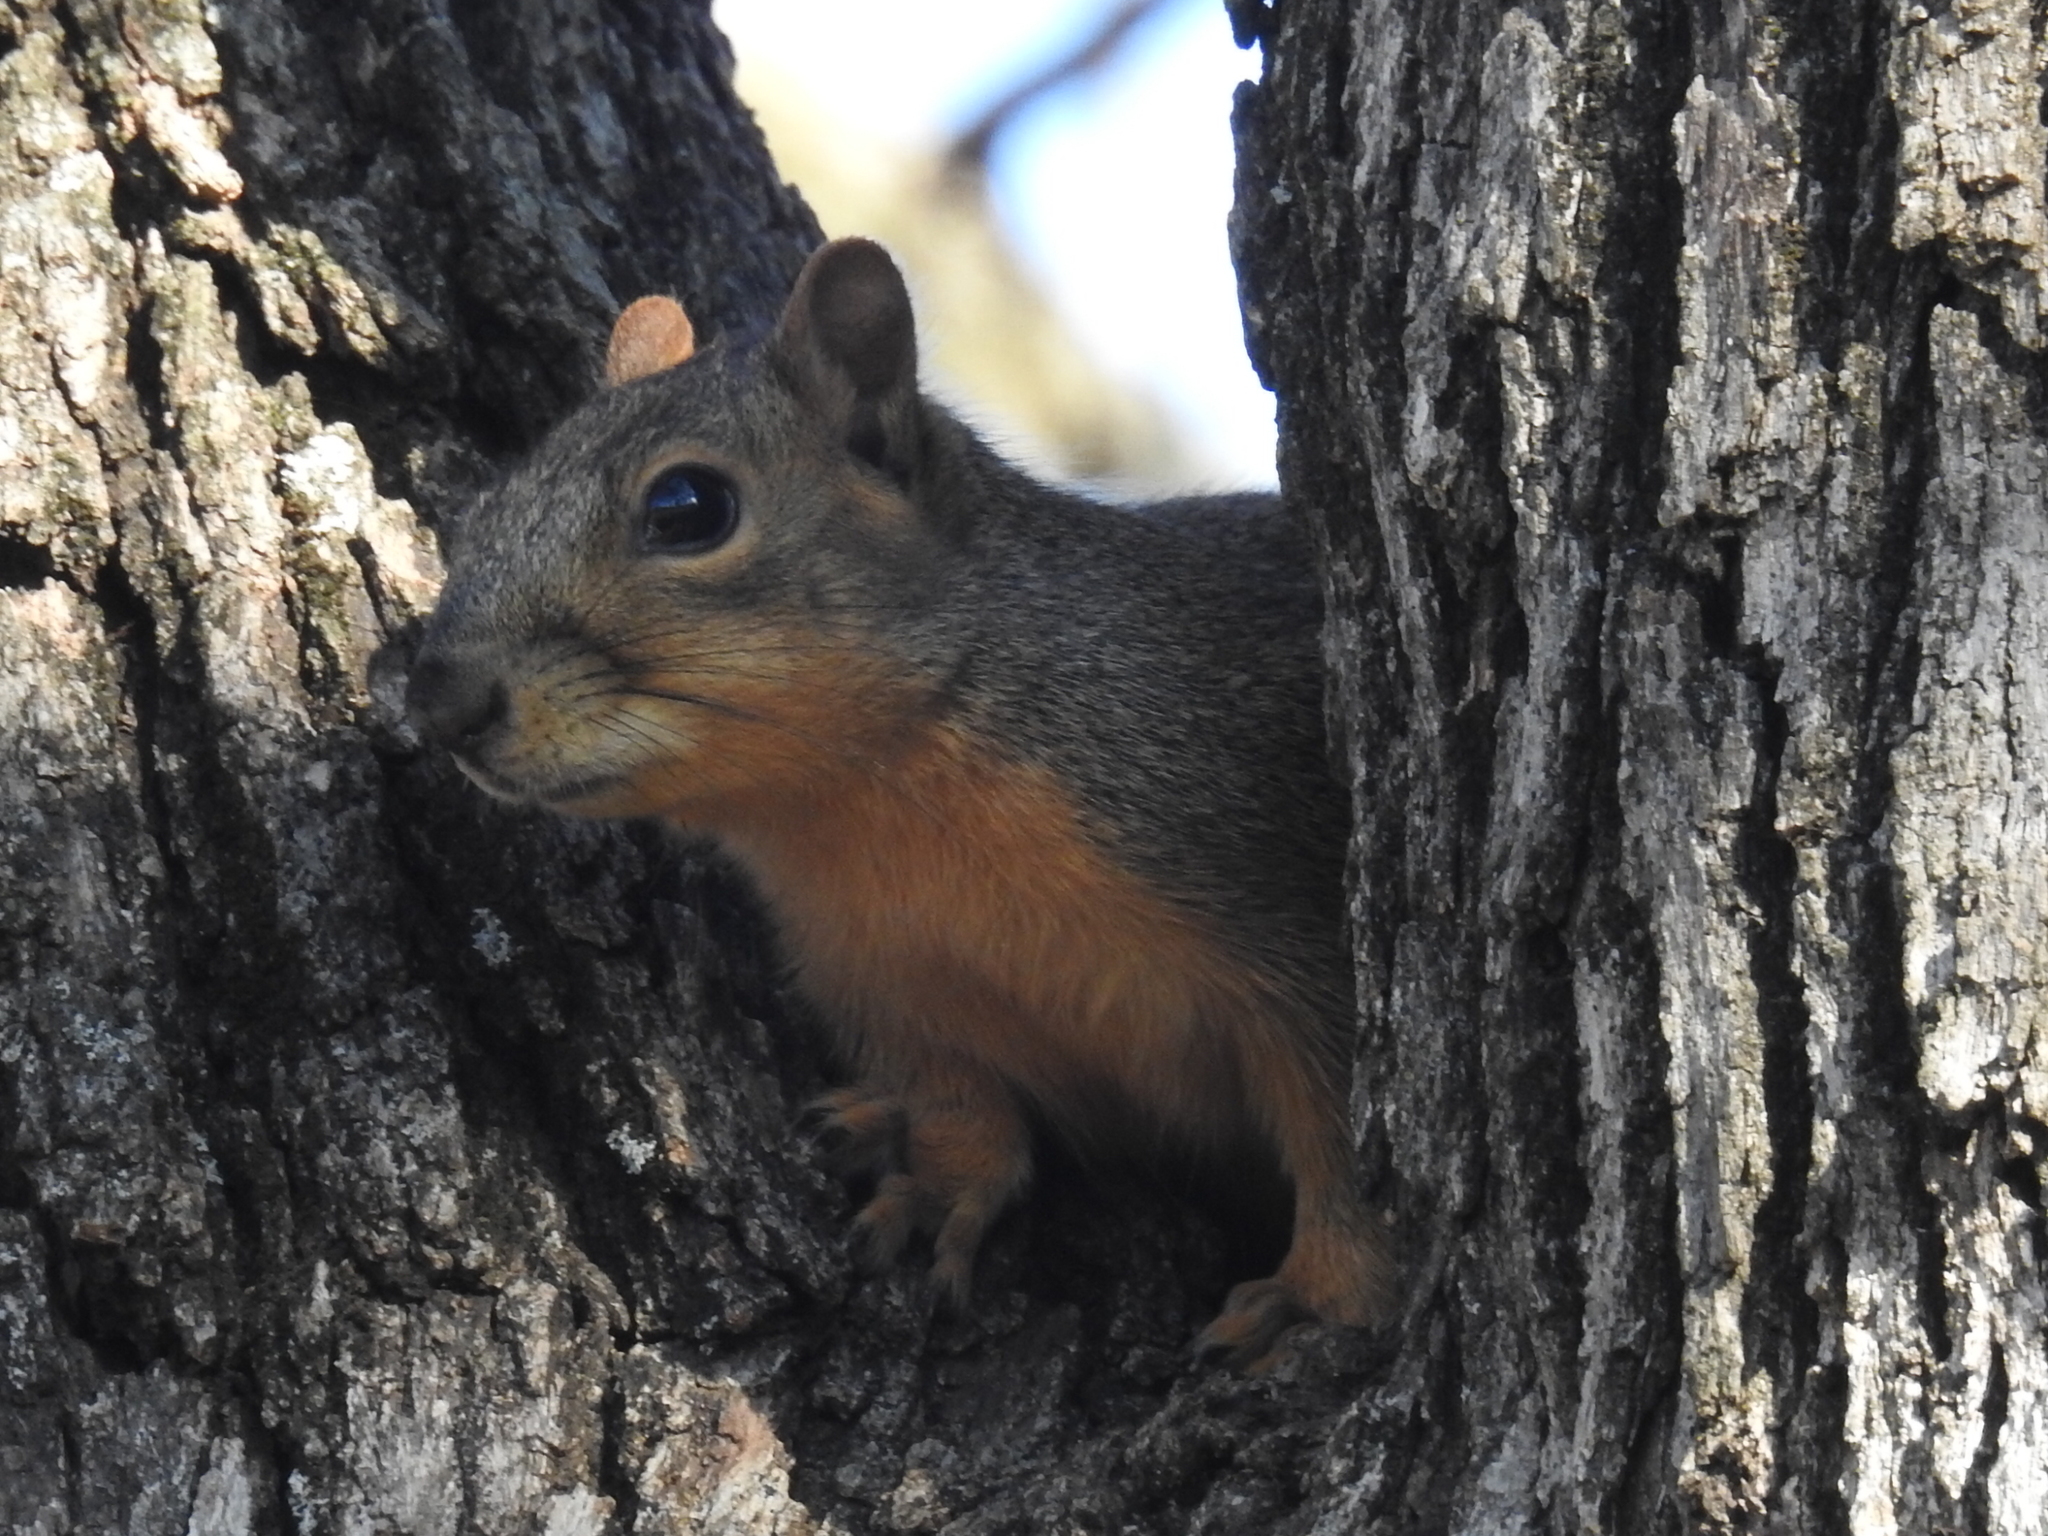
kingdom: Animalia
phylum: Chordata
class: Mammalia
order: Rodentia
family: Sciuridae
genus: Sciurus
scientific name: Sciurus niger
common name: Fox squirrel
